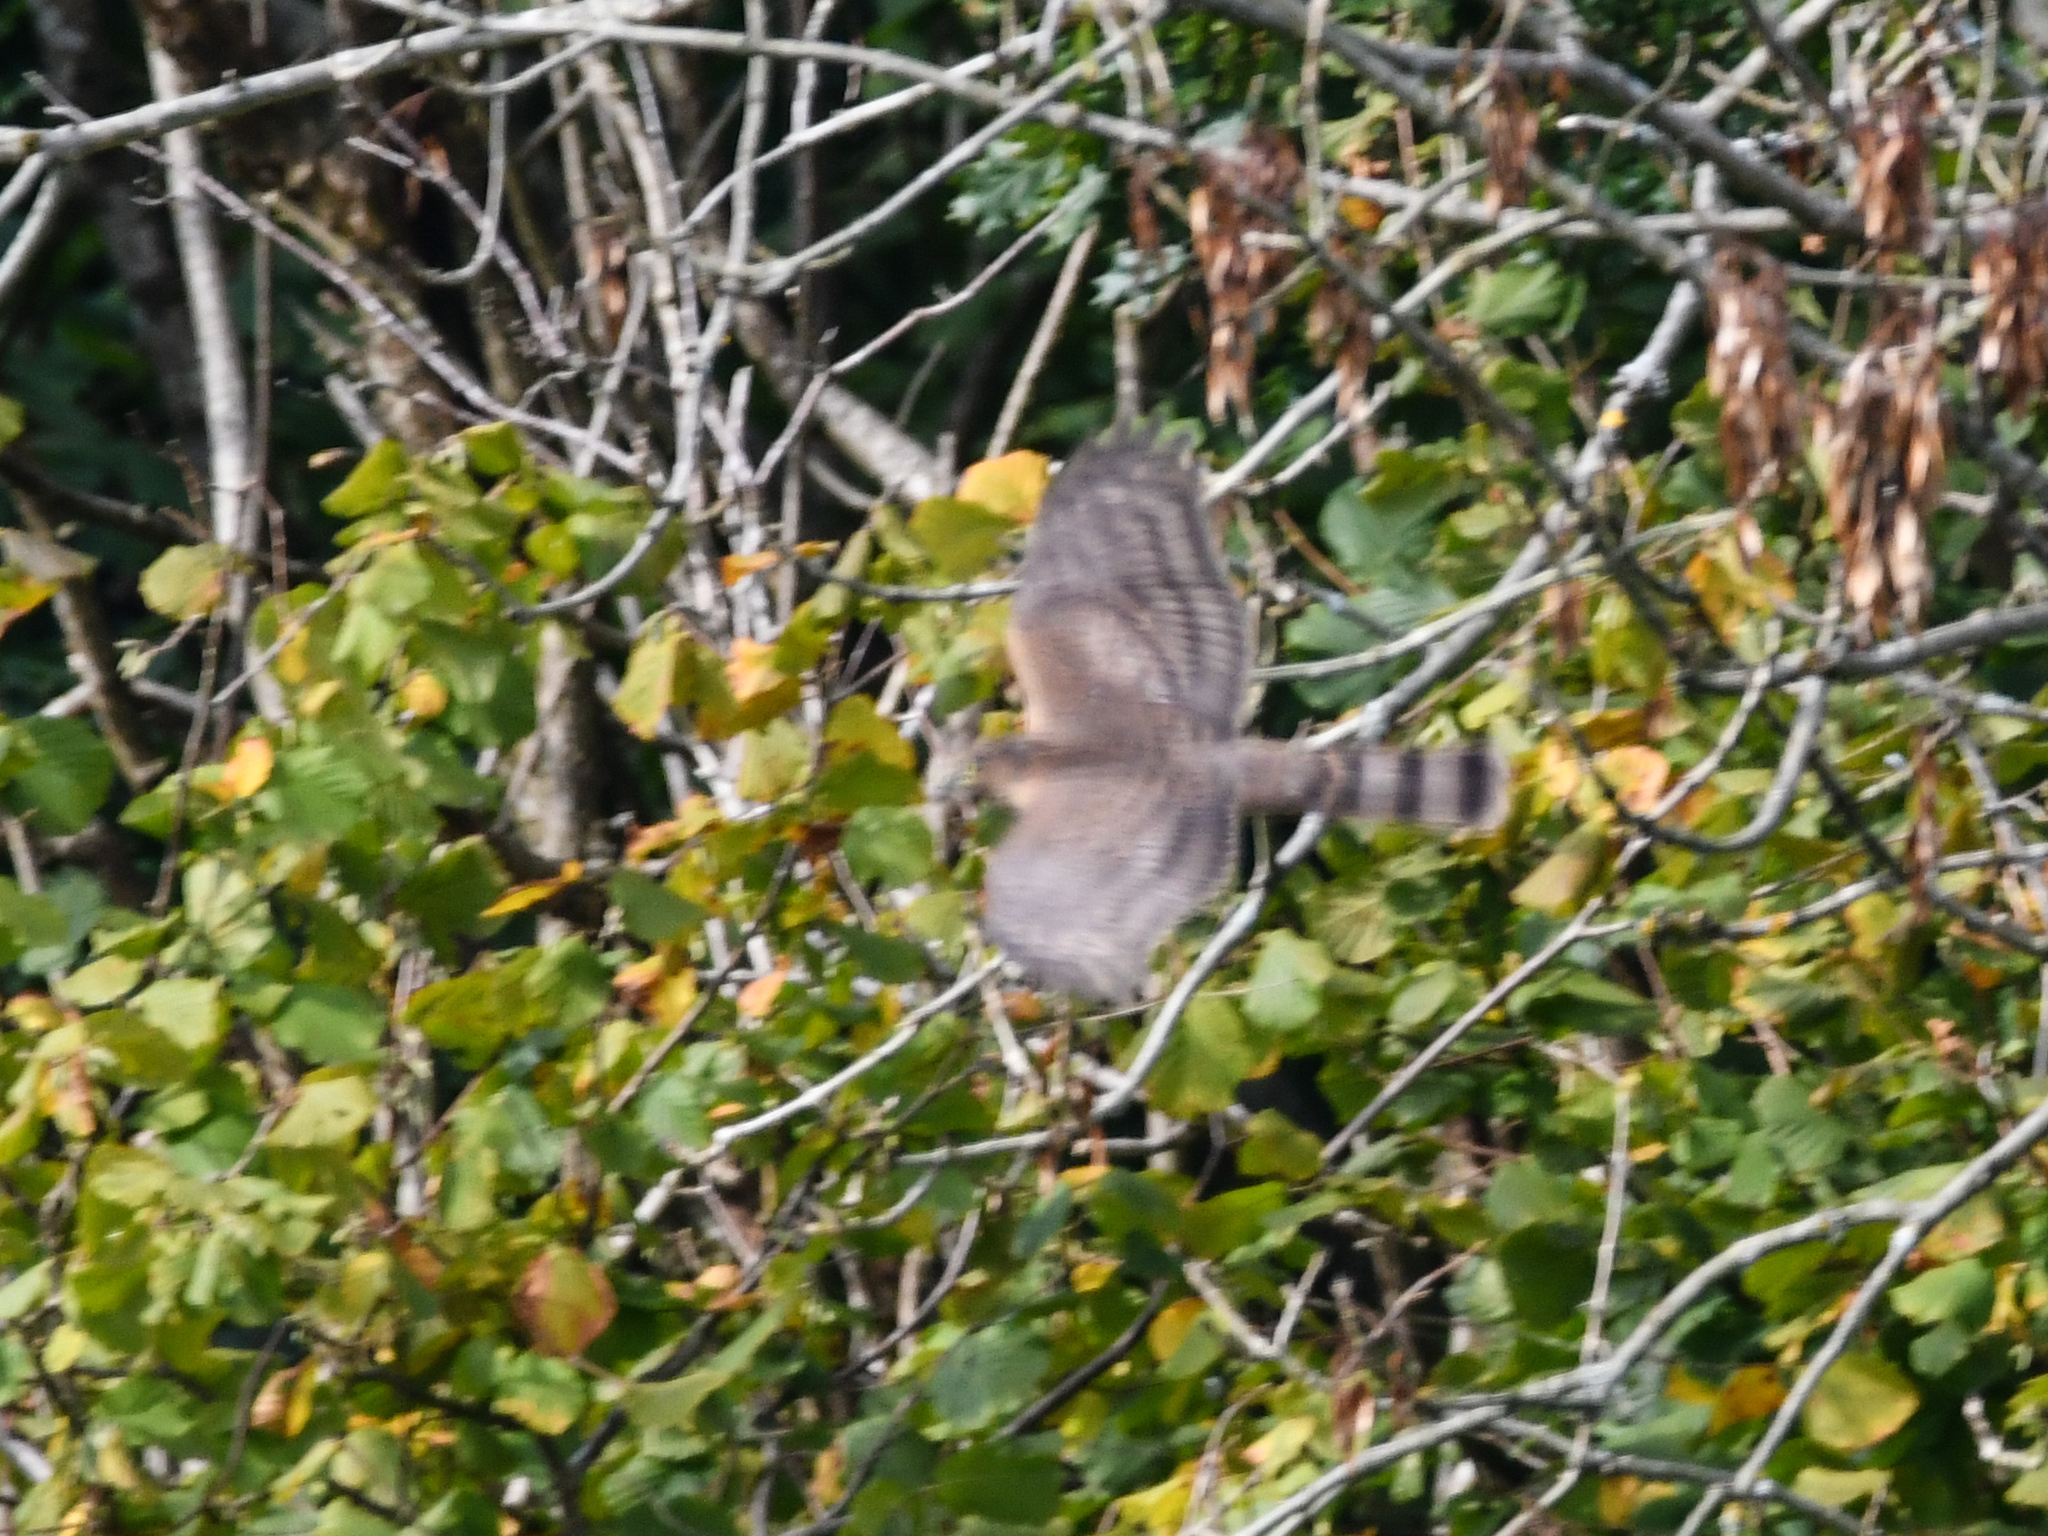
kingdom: Animalia
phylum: Chordata
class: Aves
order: Accipitriformes
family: Accipitridae
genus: Accipiter
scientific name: Accipiter nisus
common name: Eurasian sparrowhawk
